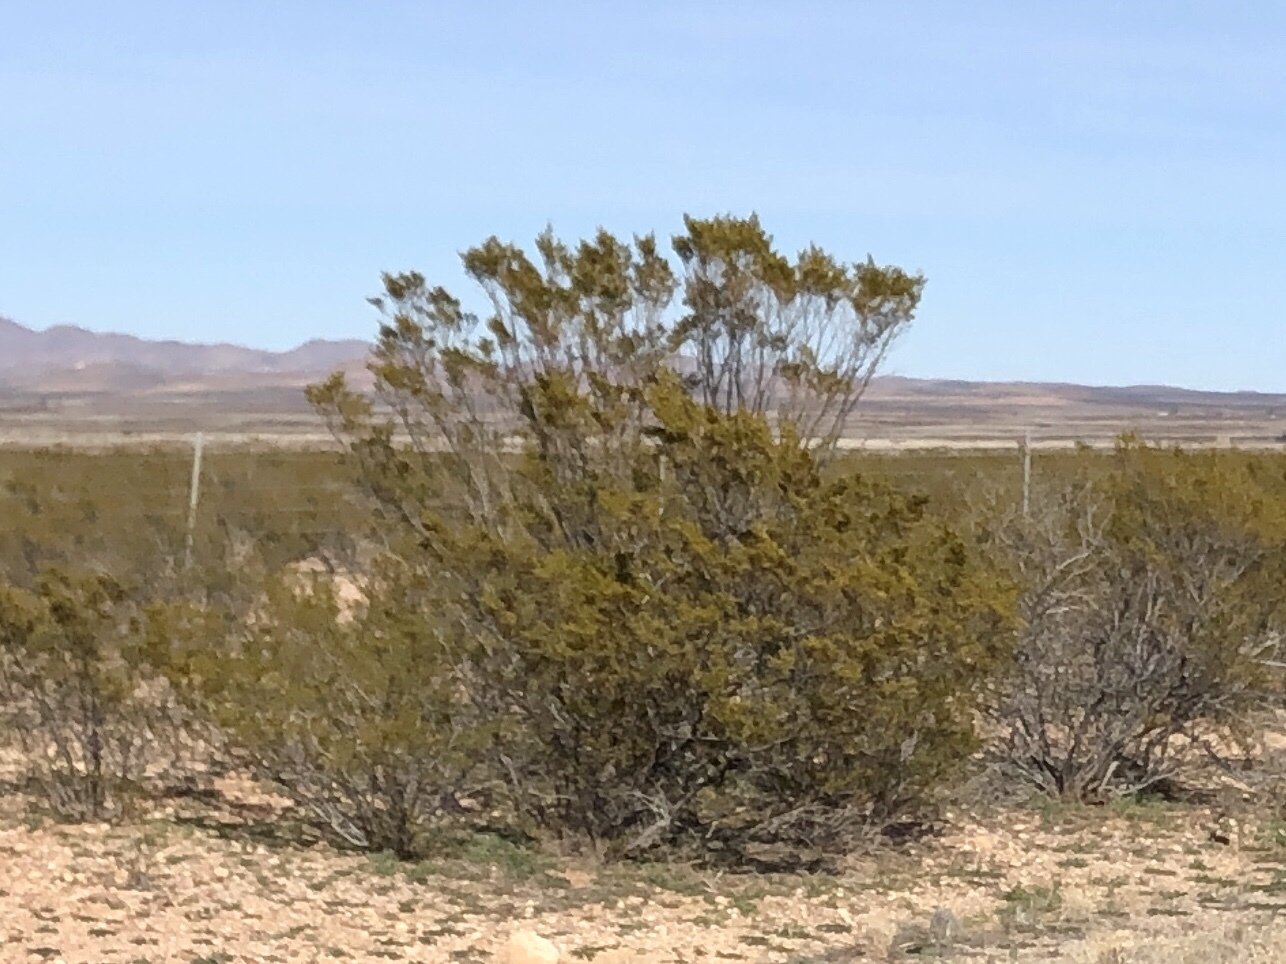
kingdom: Plantae
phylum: Tracheophyta
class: Magnoliopsida
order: Zygophyllales
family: Zygophyllaceae
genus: Larrea
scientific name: Larrea tridentata
